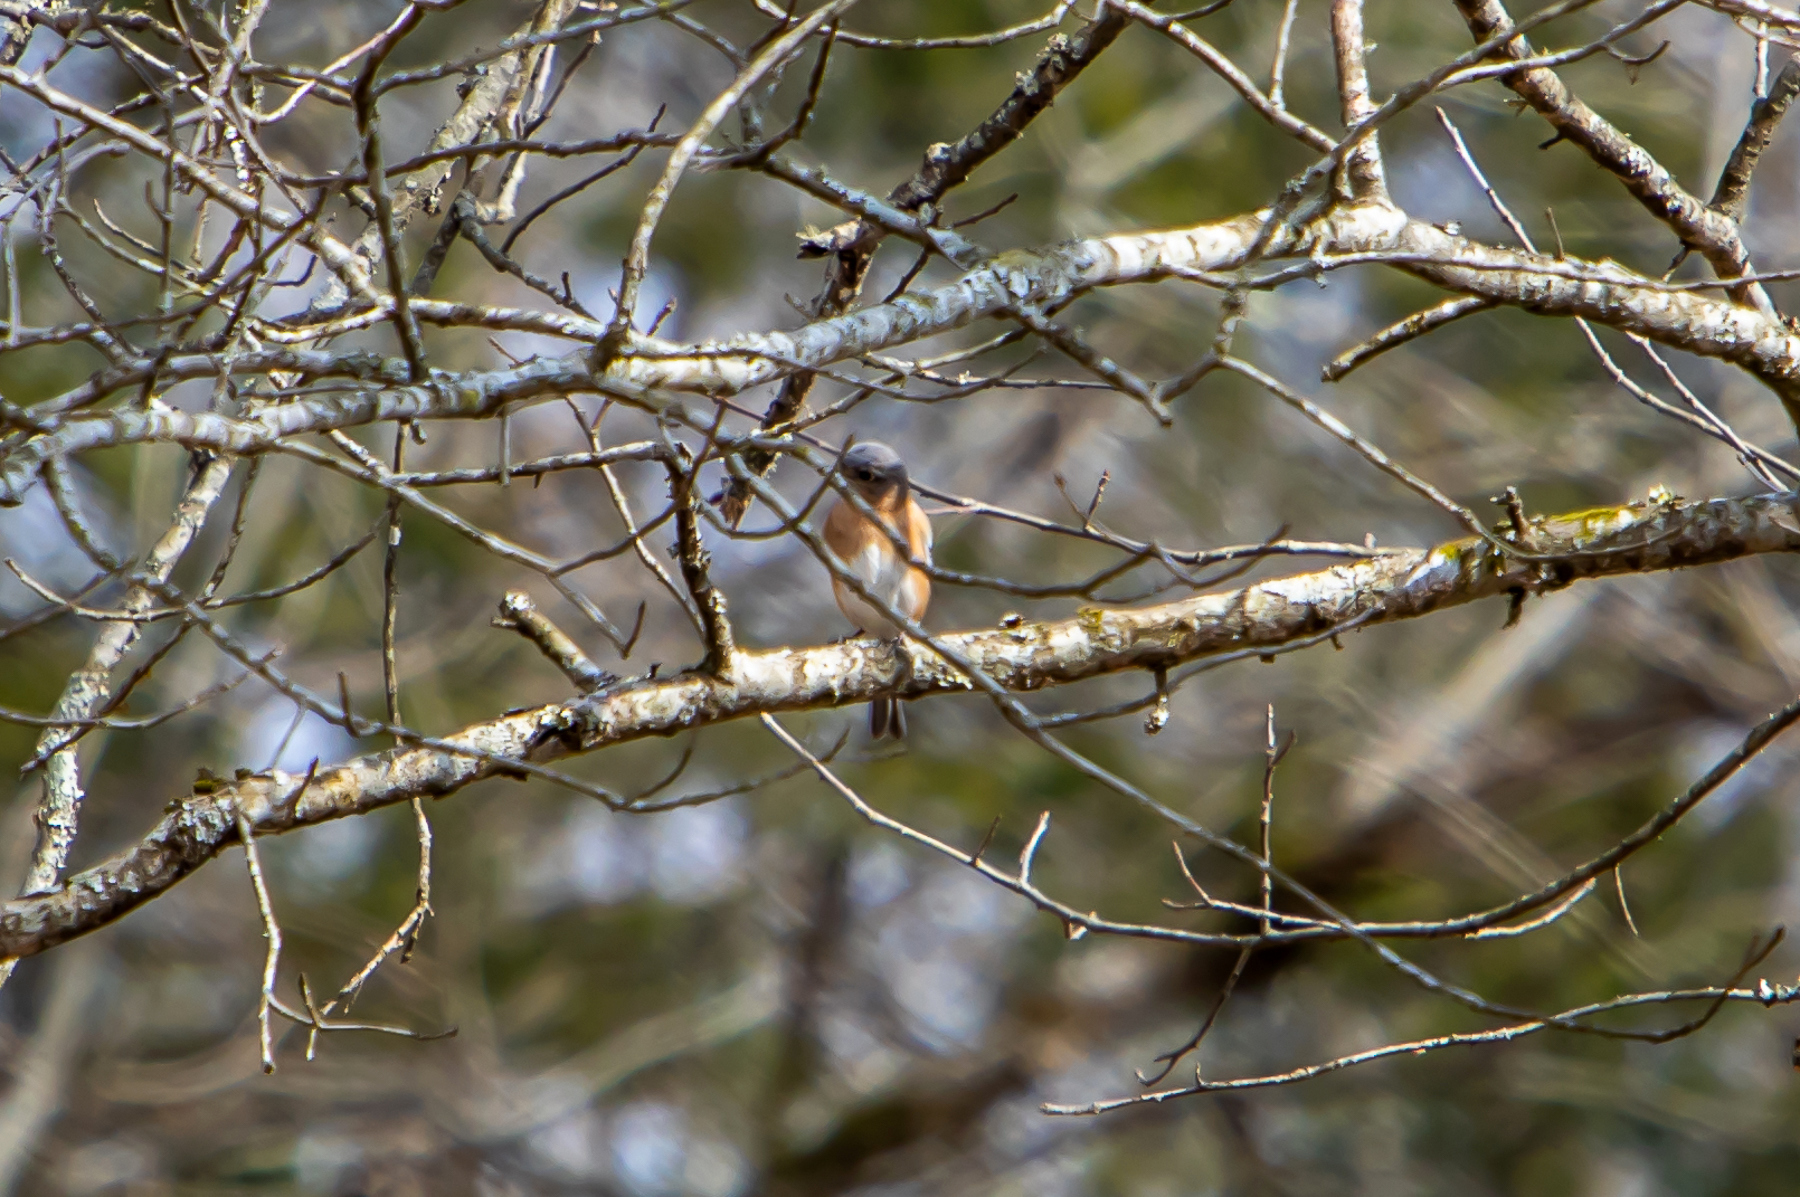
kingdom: Animalia
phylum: Chordata
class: Aves
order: Passeriformes
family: Turdidae
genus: Sialia
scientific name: Sialia sialis
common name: Eastern bluebird
